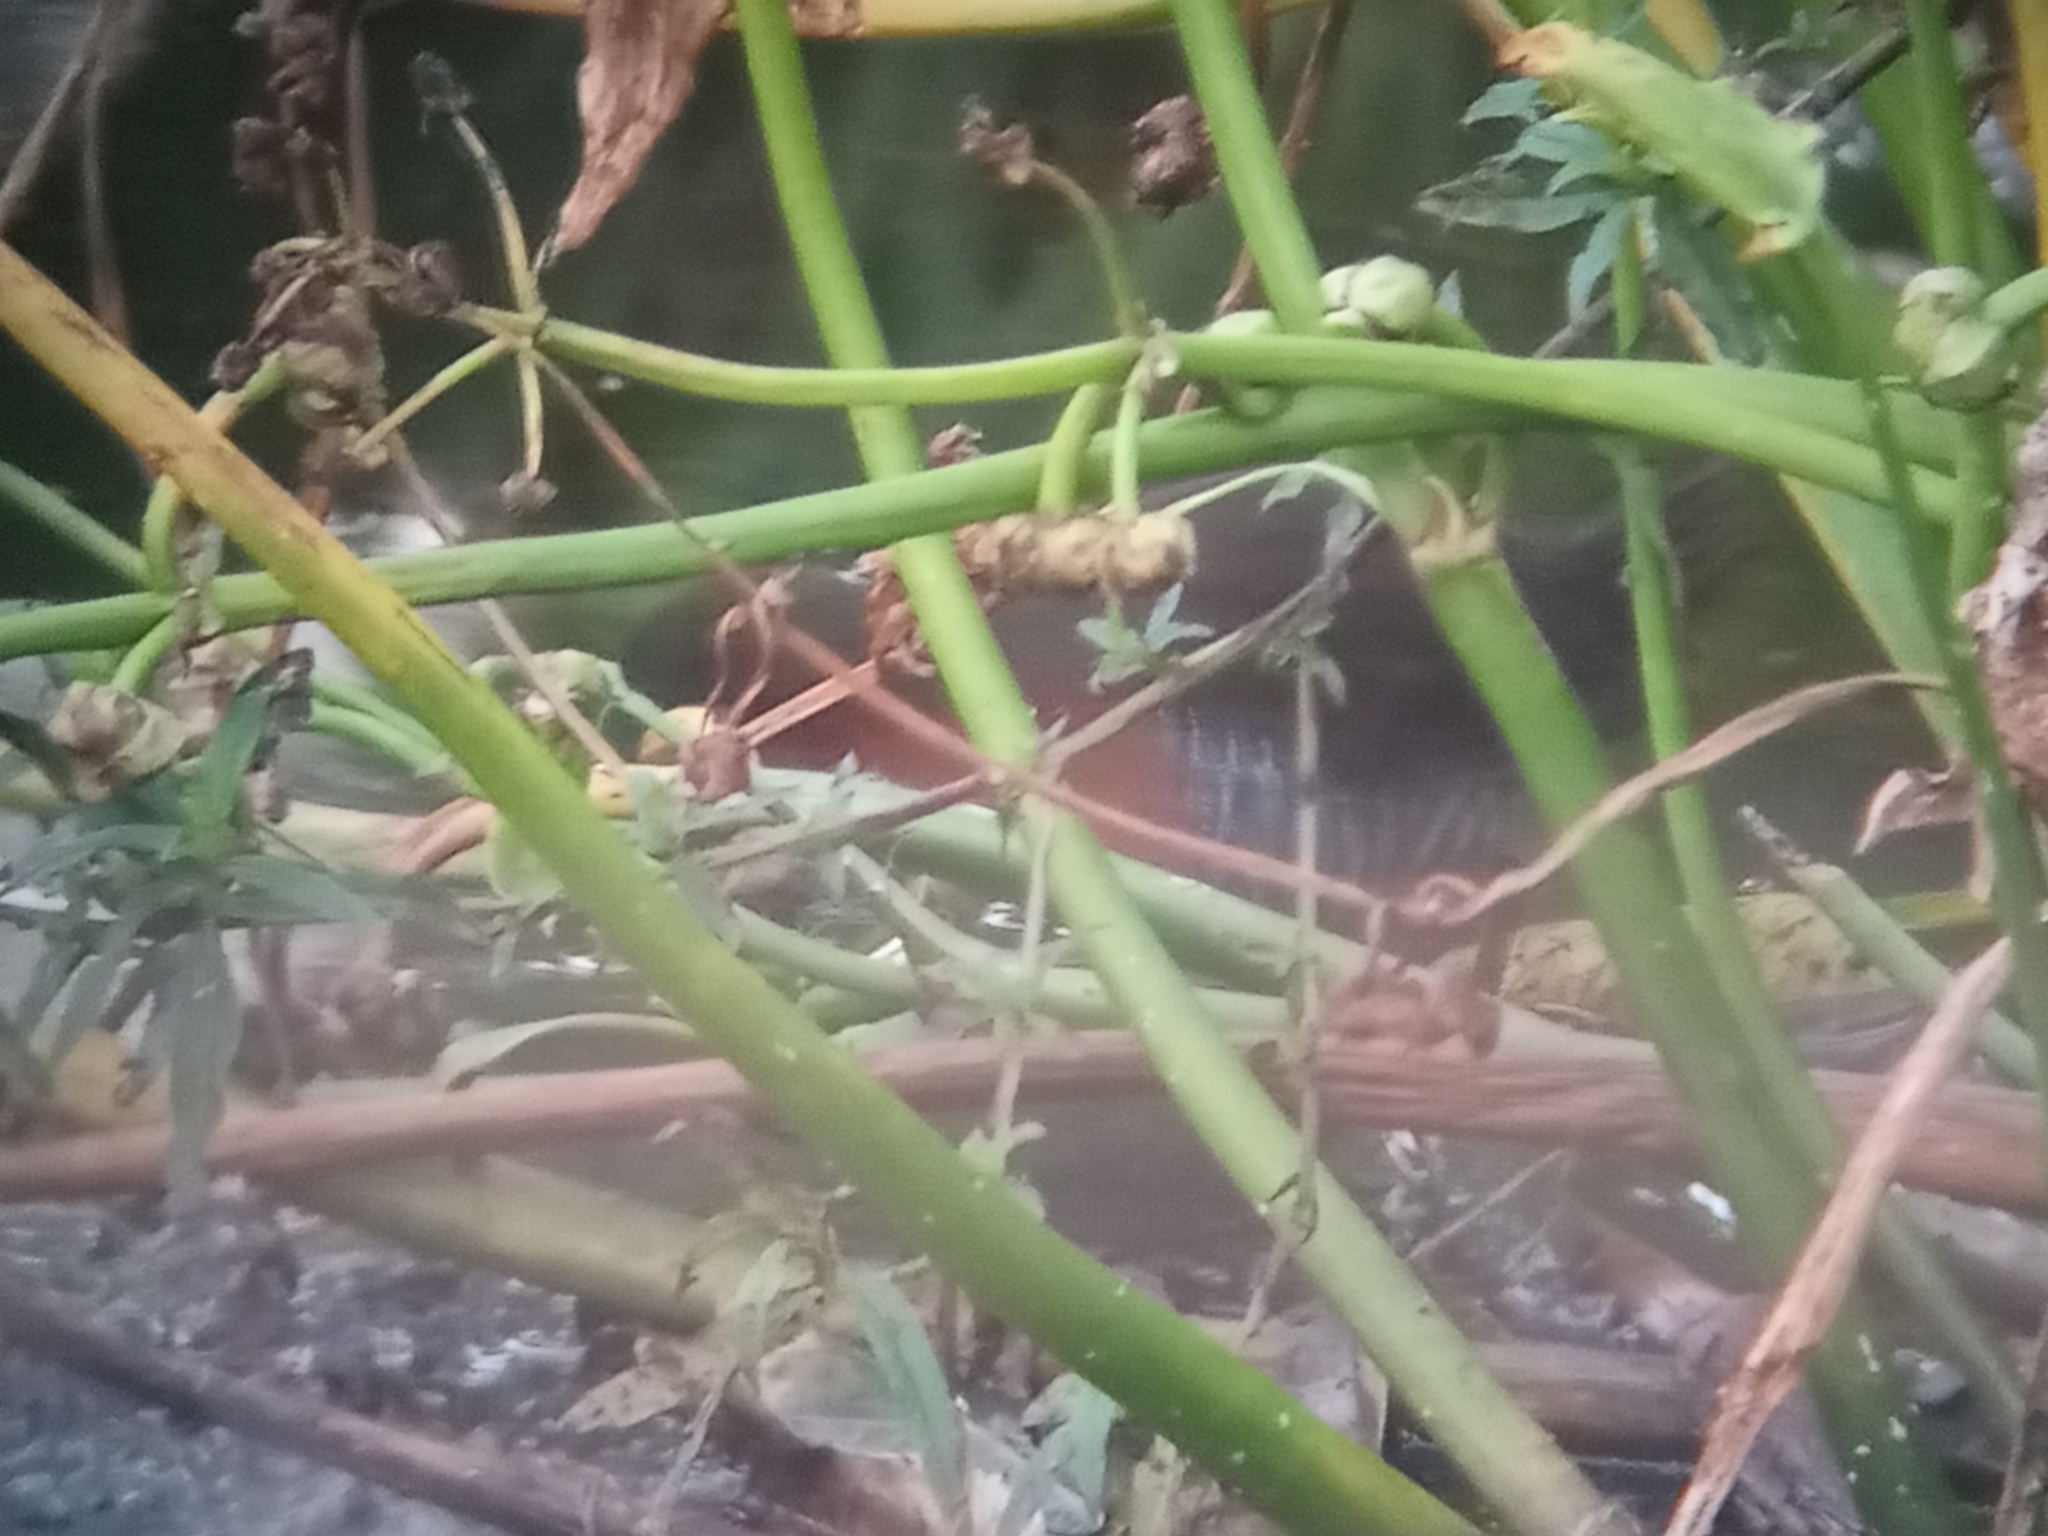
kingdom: Animalia
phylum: Chordata
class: Aves
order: Gruiformes
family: Rallidae
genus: Laterallus
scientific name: Laterallus melanophaius
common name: Rufous-sided crake
